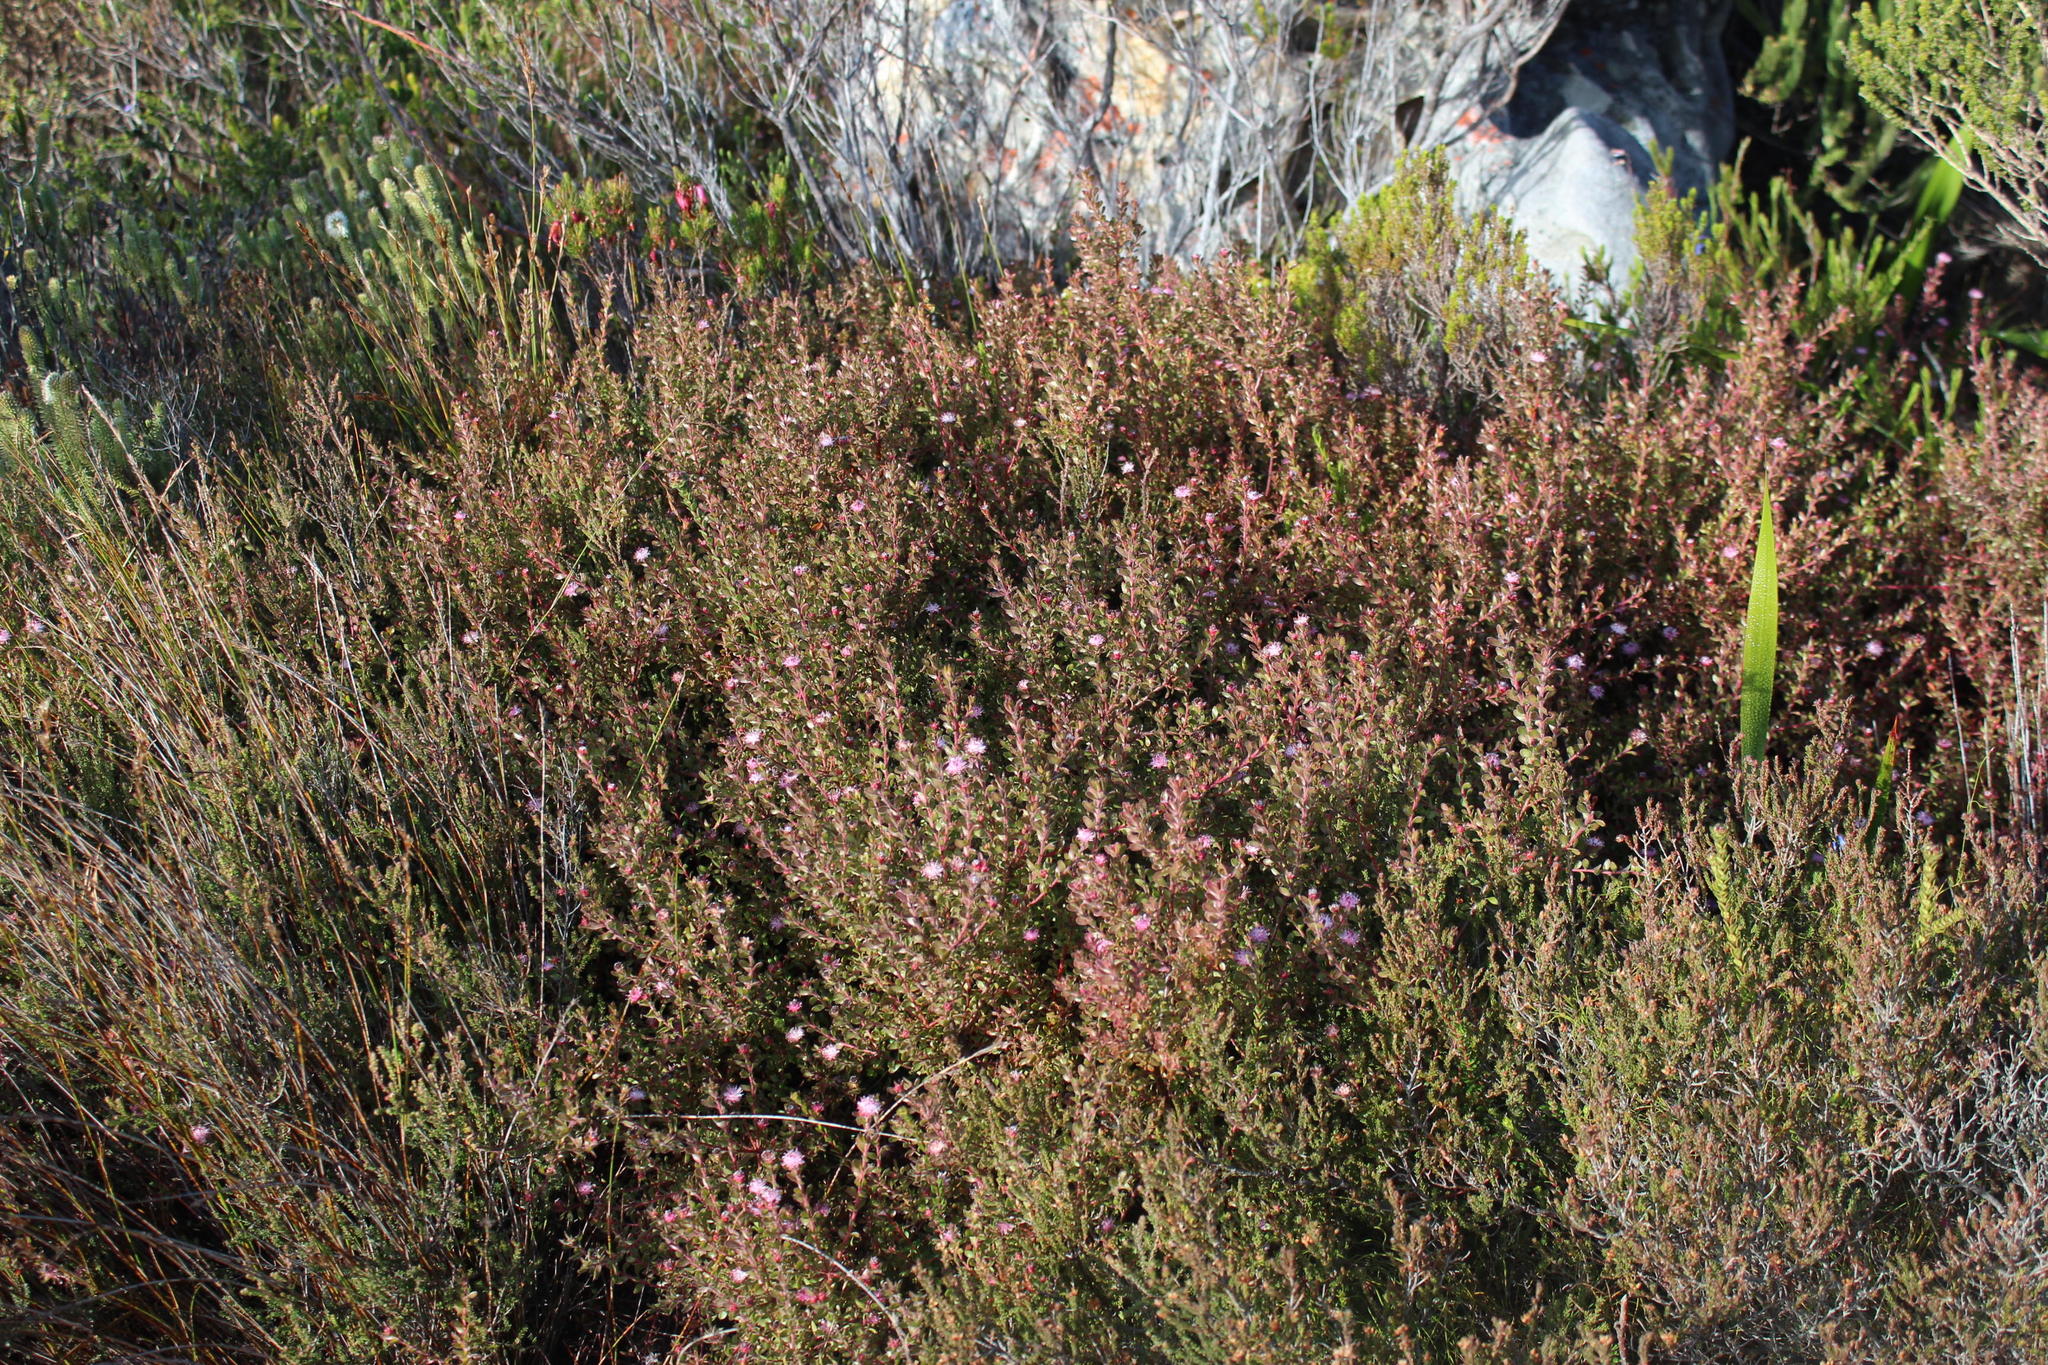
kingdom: Plantae
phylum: Tracheophyta
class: Magnoliopsida
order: Proteales
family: Proteaceae
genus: Diastella
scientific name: Diastella divaricata
